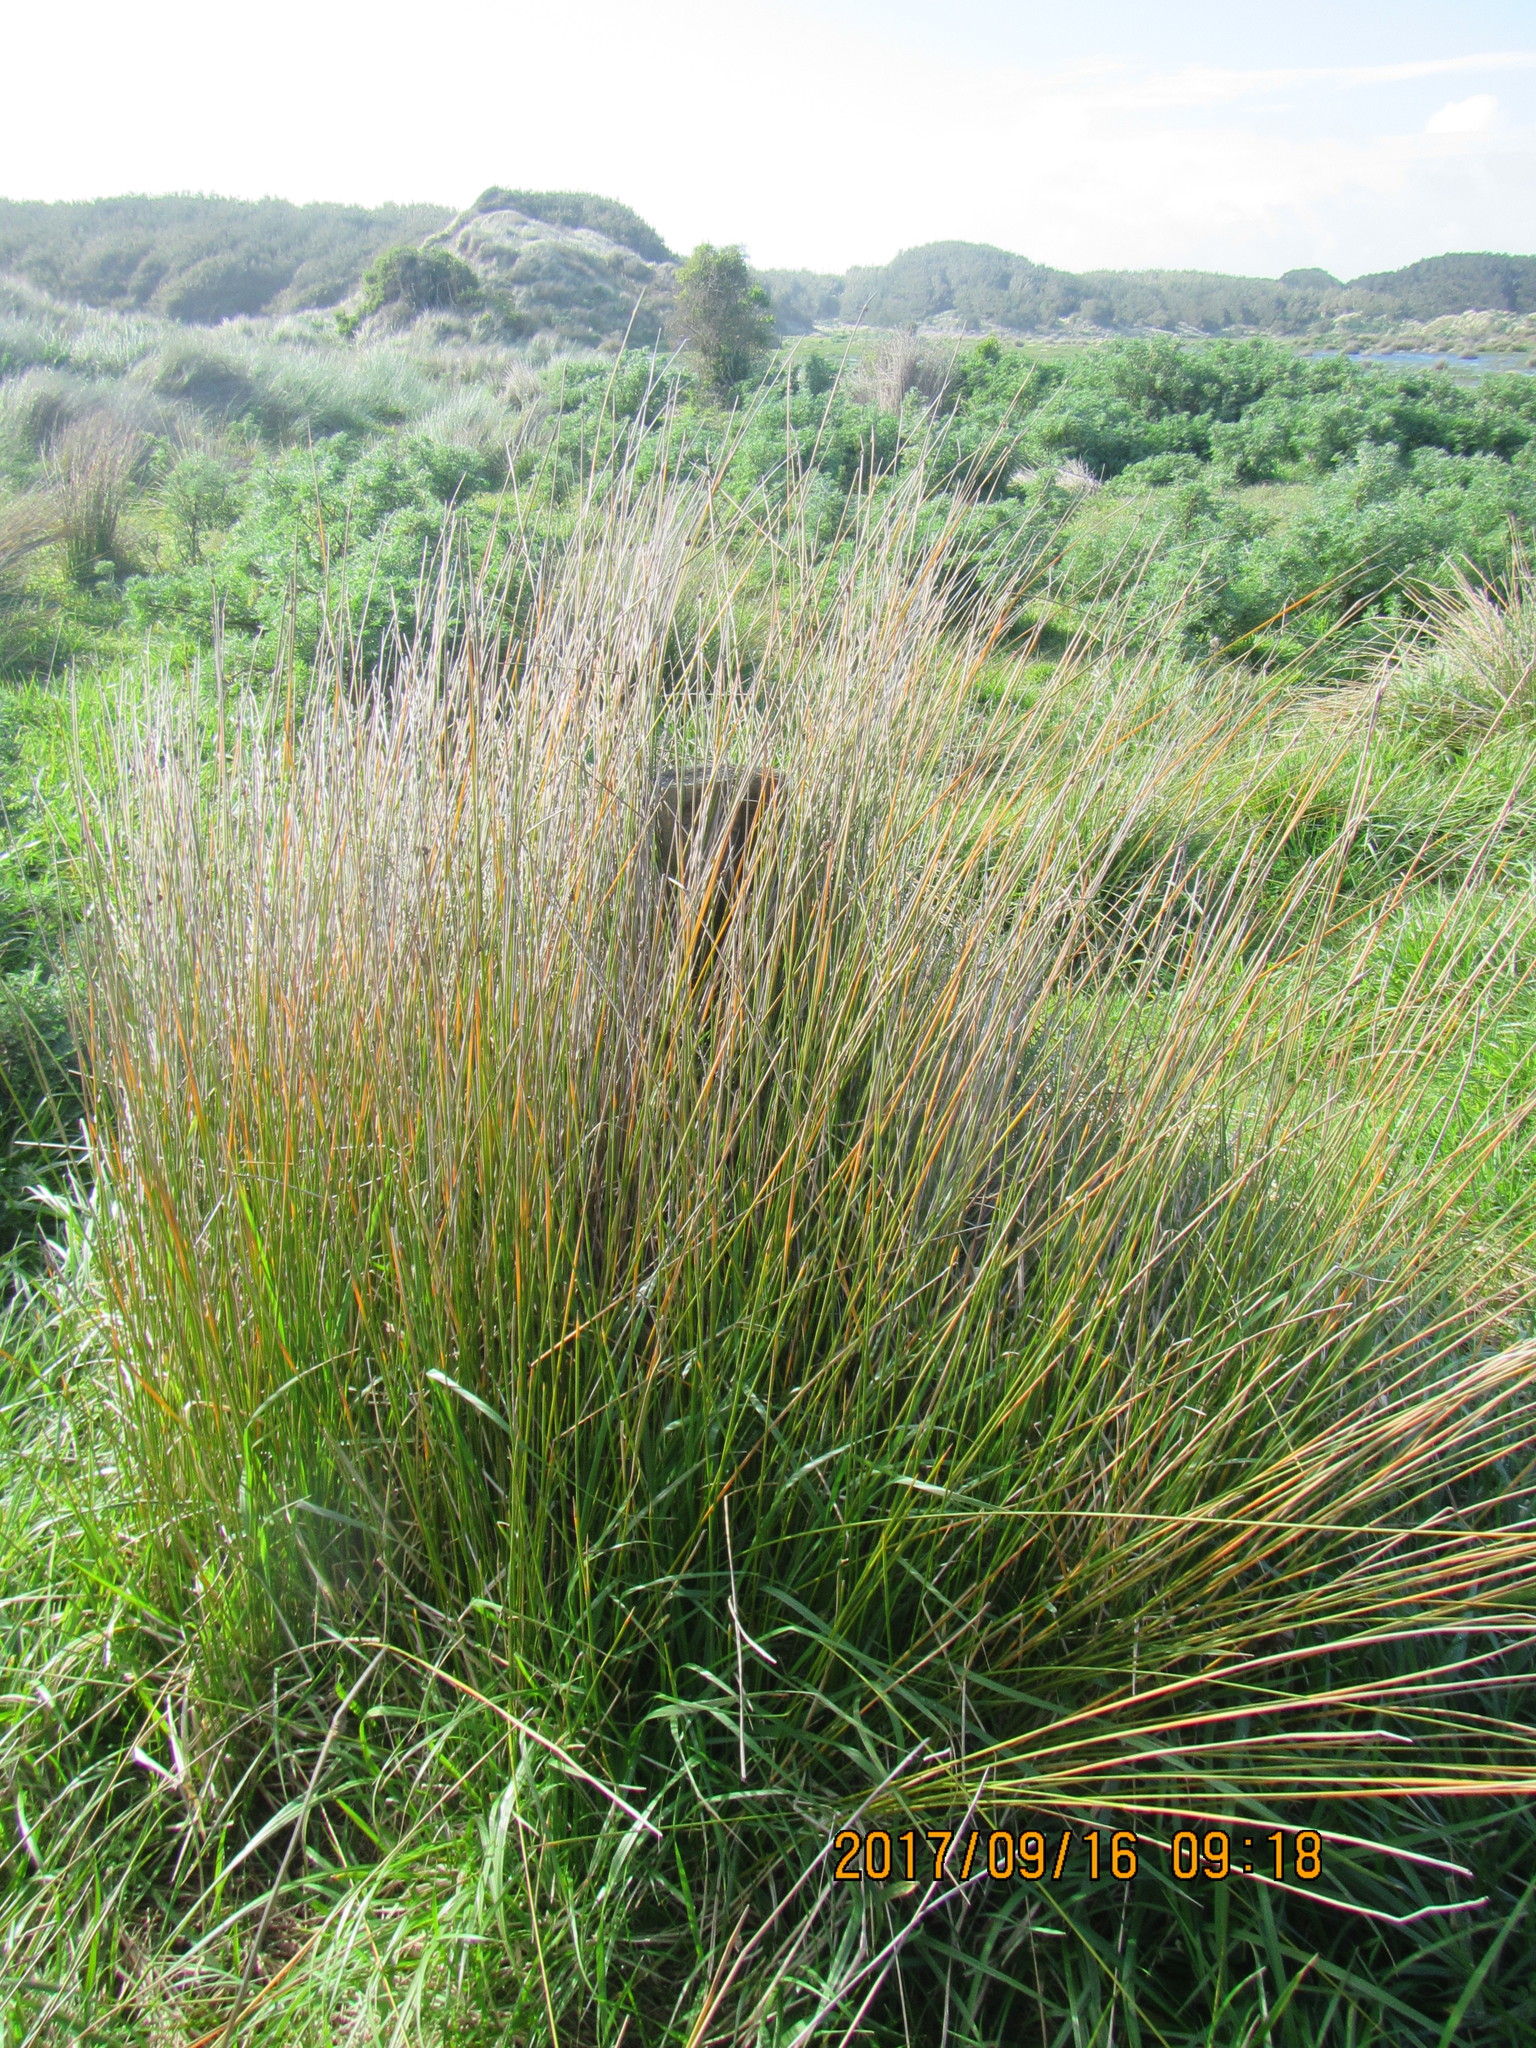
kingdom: Plantae
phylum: Tracheophyta
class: Liliopsida
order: Poales
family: Cyperaceae
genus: Ficinia
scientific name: Ficinia nodosa
